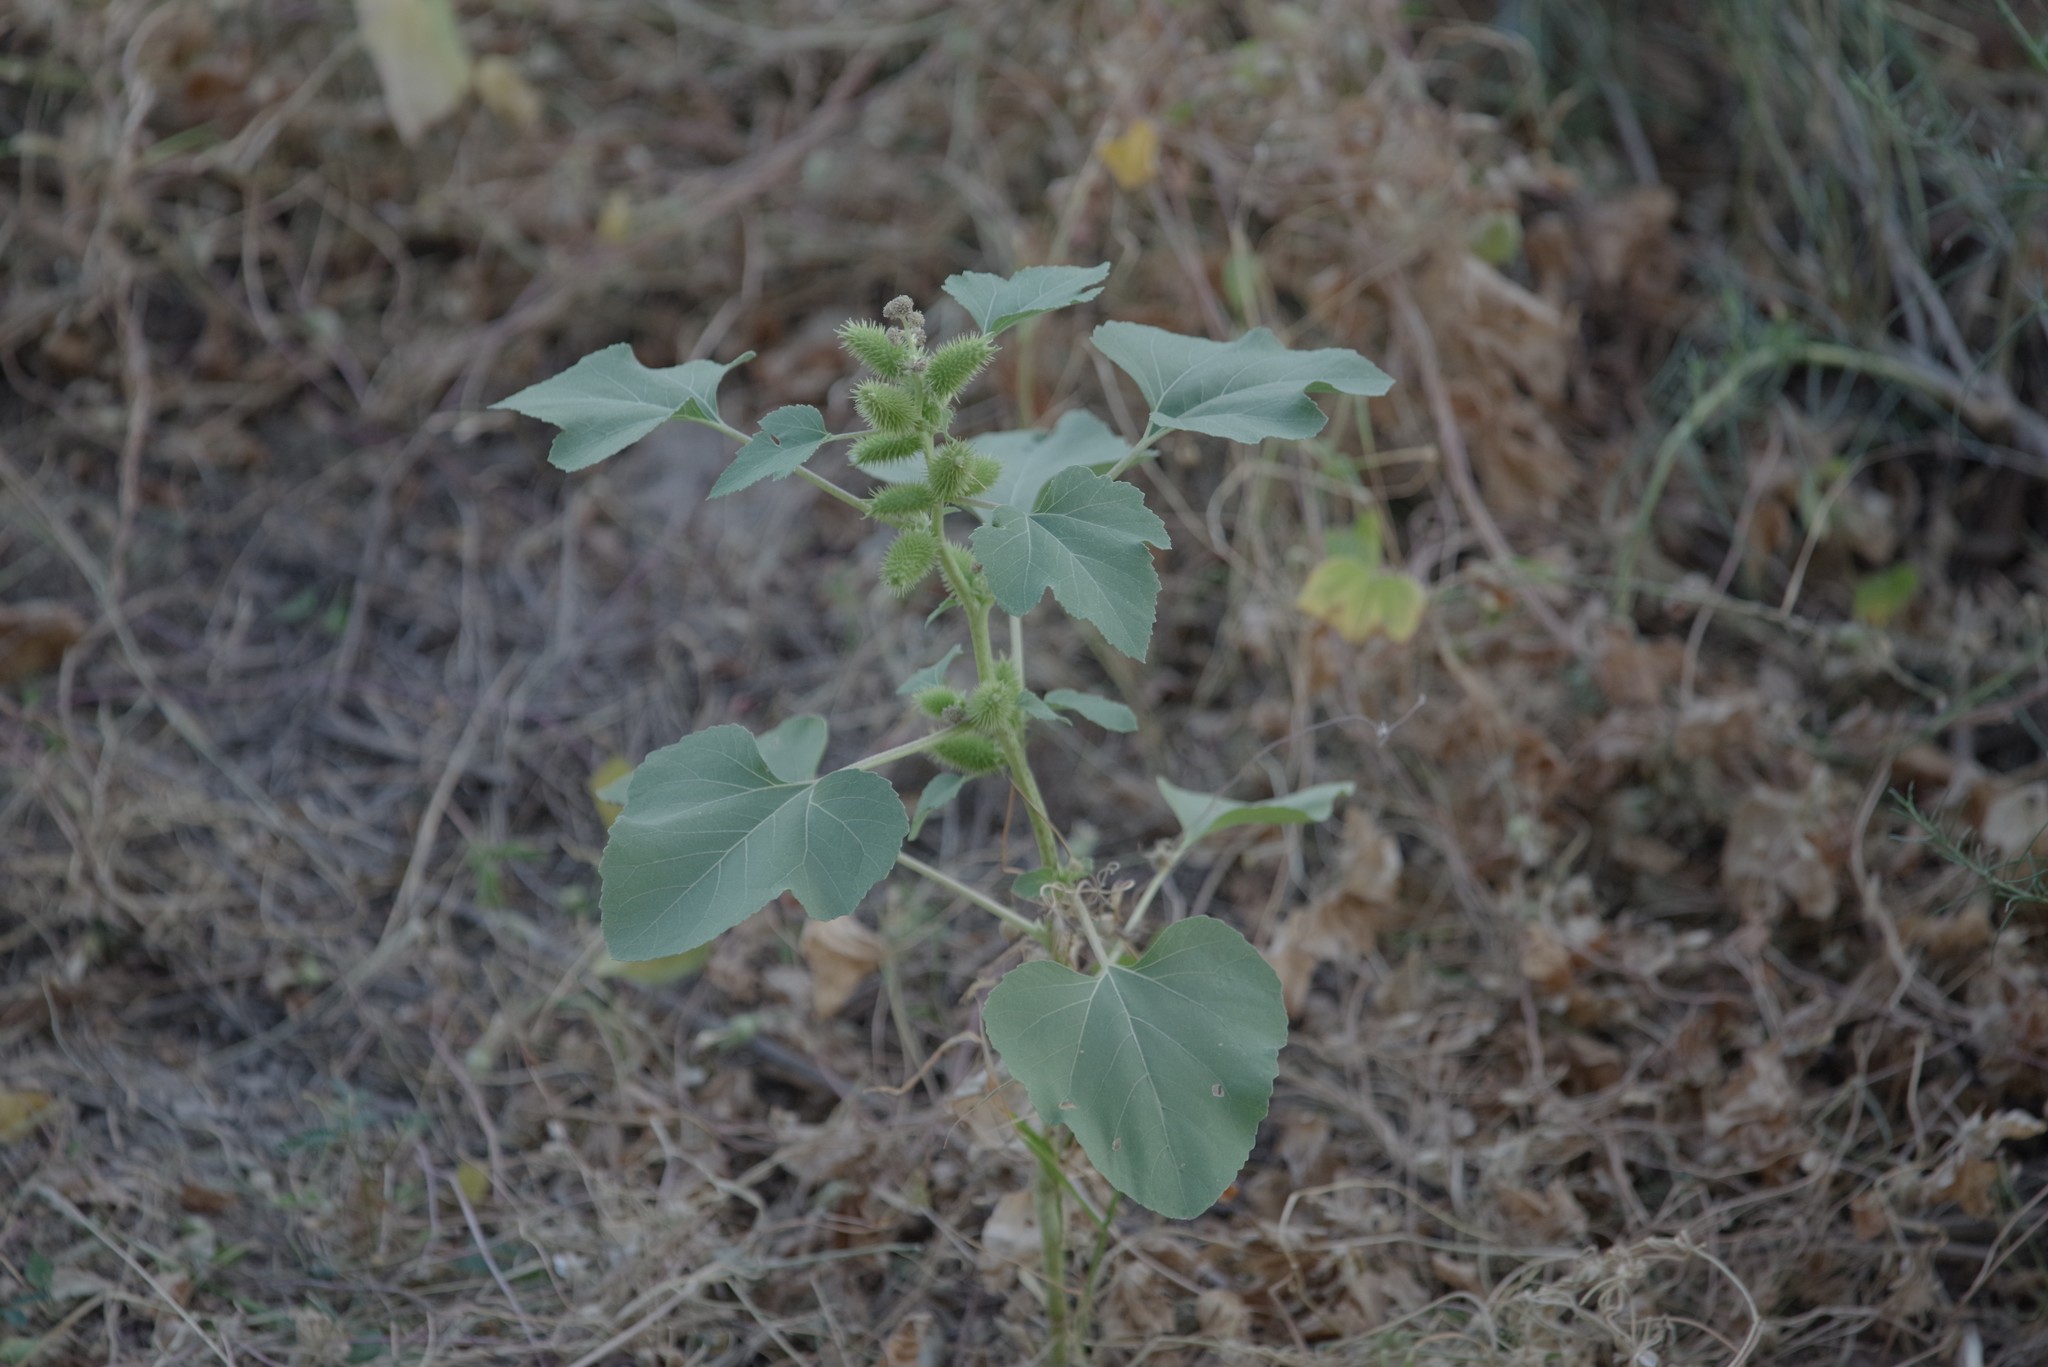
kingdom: Plantae
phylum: Tracheophyta
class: Magnoliopsida
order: Asterales
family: Asteraceae
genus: Xanthium
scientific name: Xanthium strumarium
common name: Rough cocklebur
